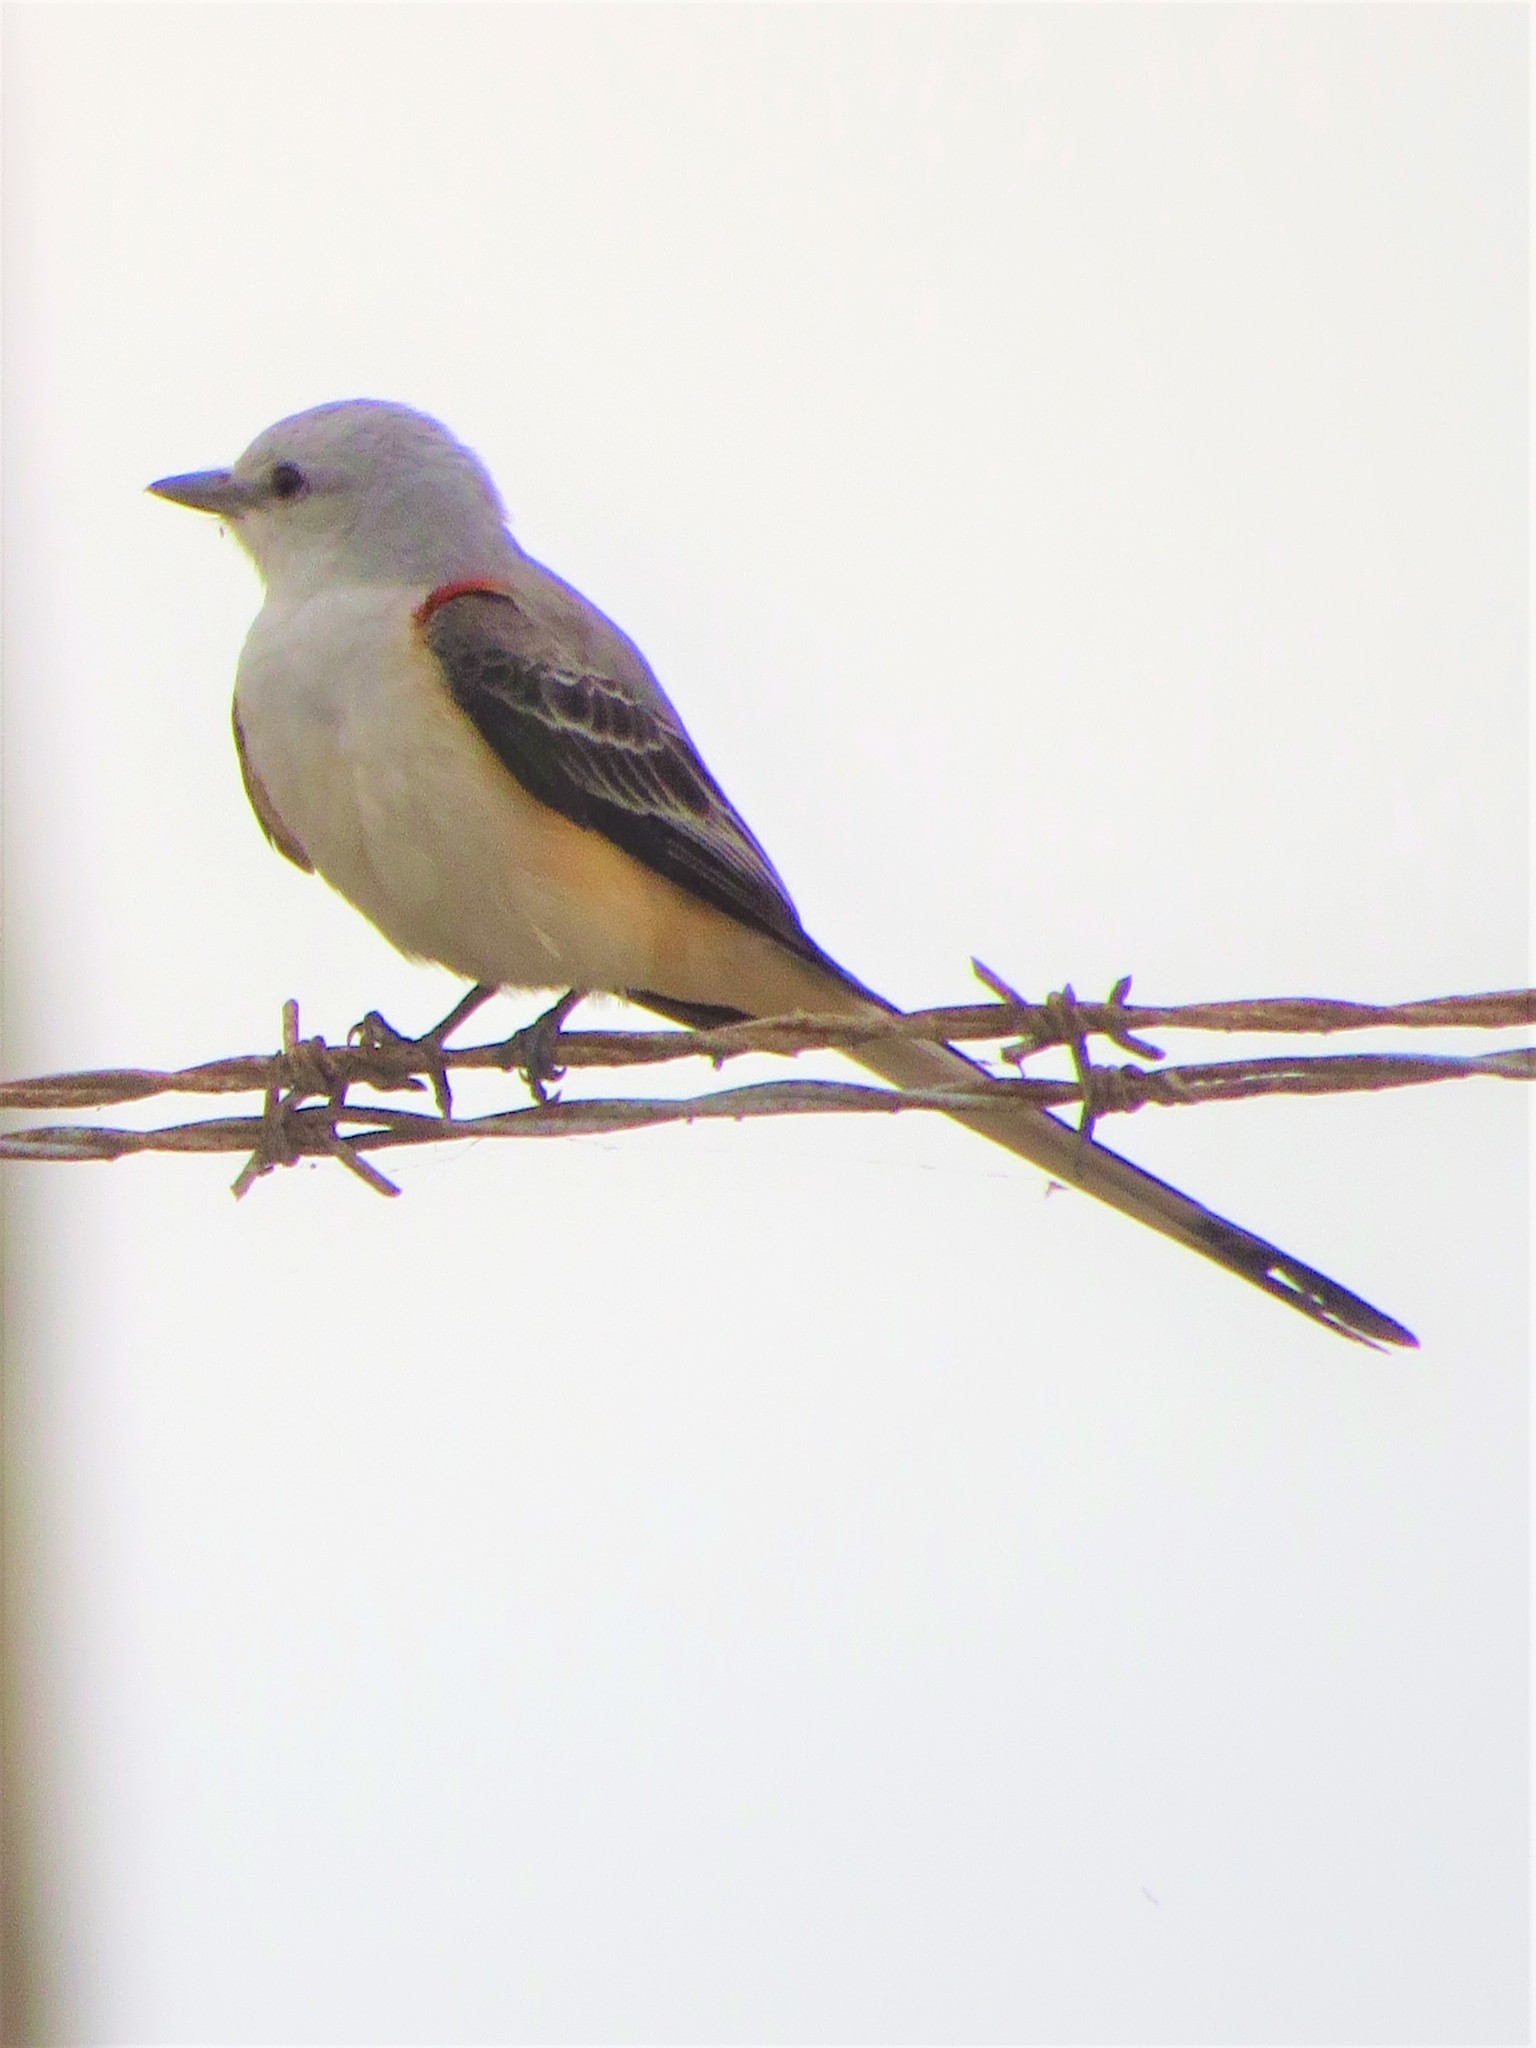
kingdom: Animalia
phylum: Chordata
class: Aves
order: Passeriformes
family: Tyrannidae
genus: Tyrannus
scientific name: Tyrannus forficatus
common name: Scissor-tailed flycatcher
